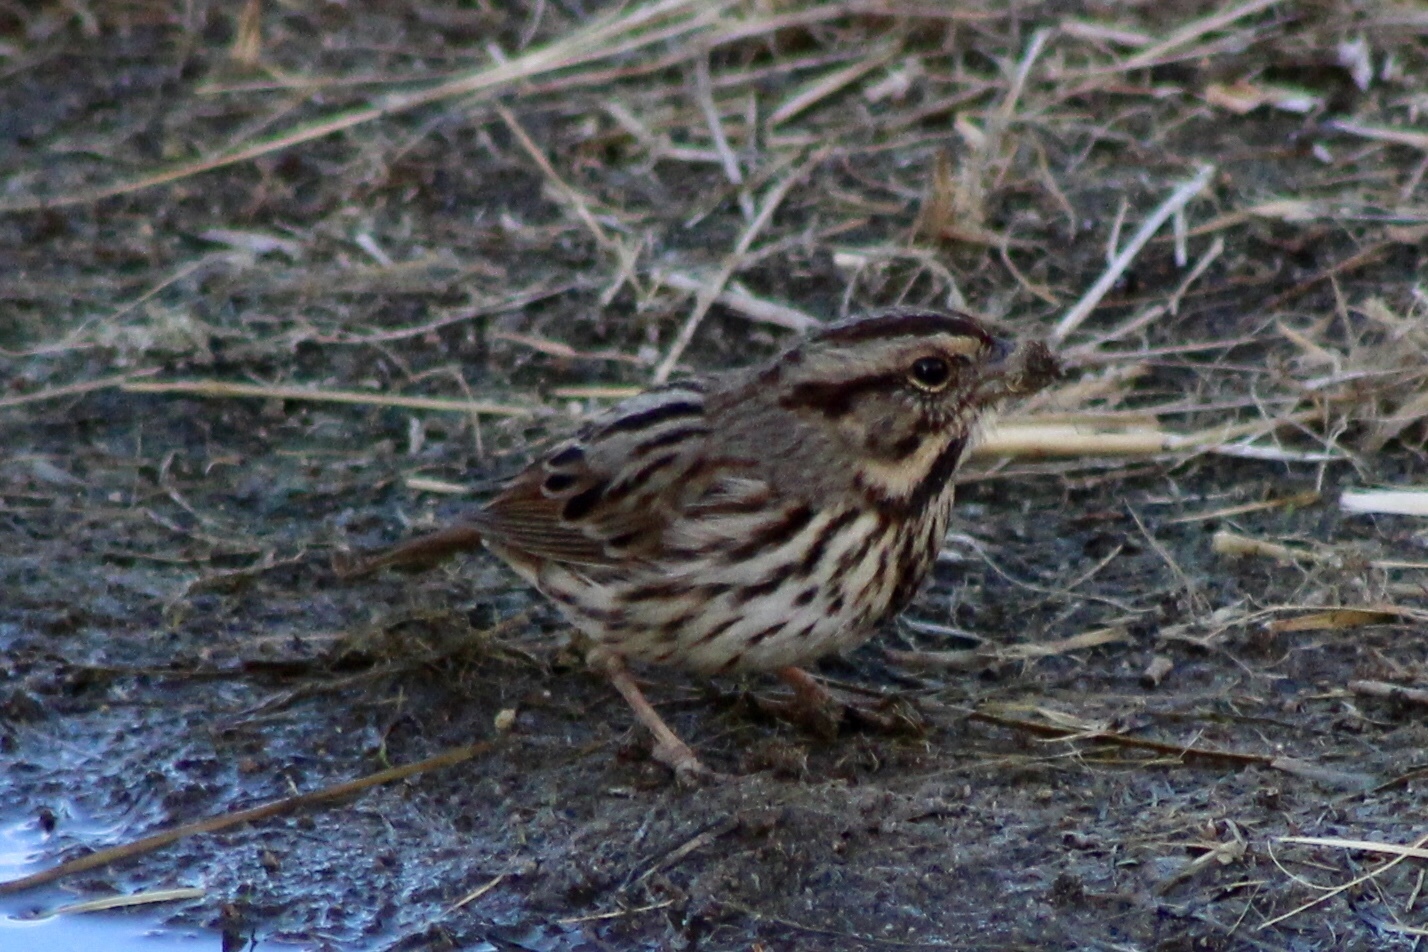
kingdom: Animalia
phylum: Chordata
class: Aves
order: Passeriformes
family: Passerellidae
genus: Melospiza
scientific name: Melospiza melodia
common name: Song sparrow
